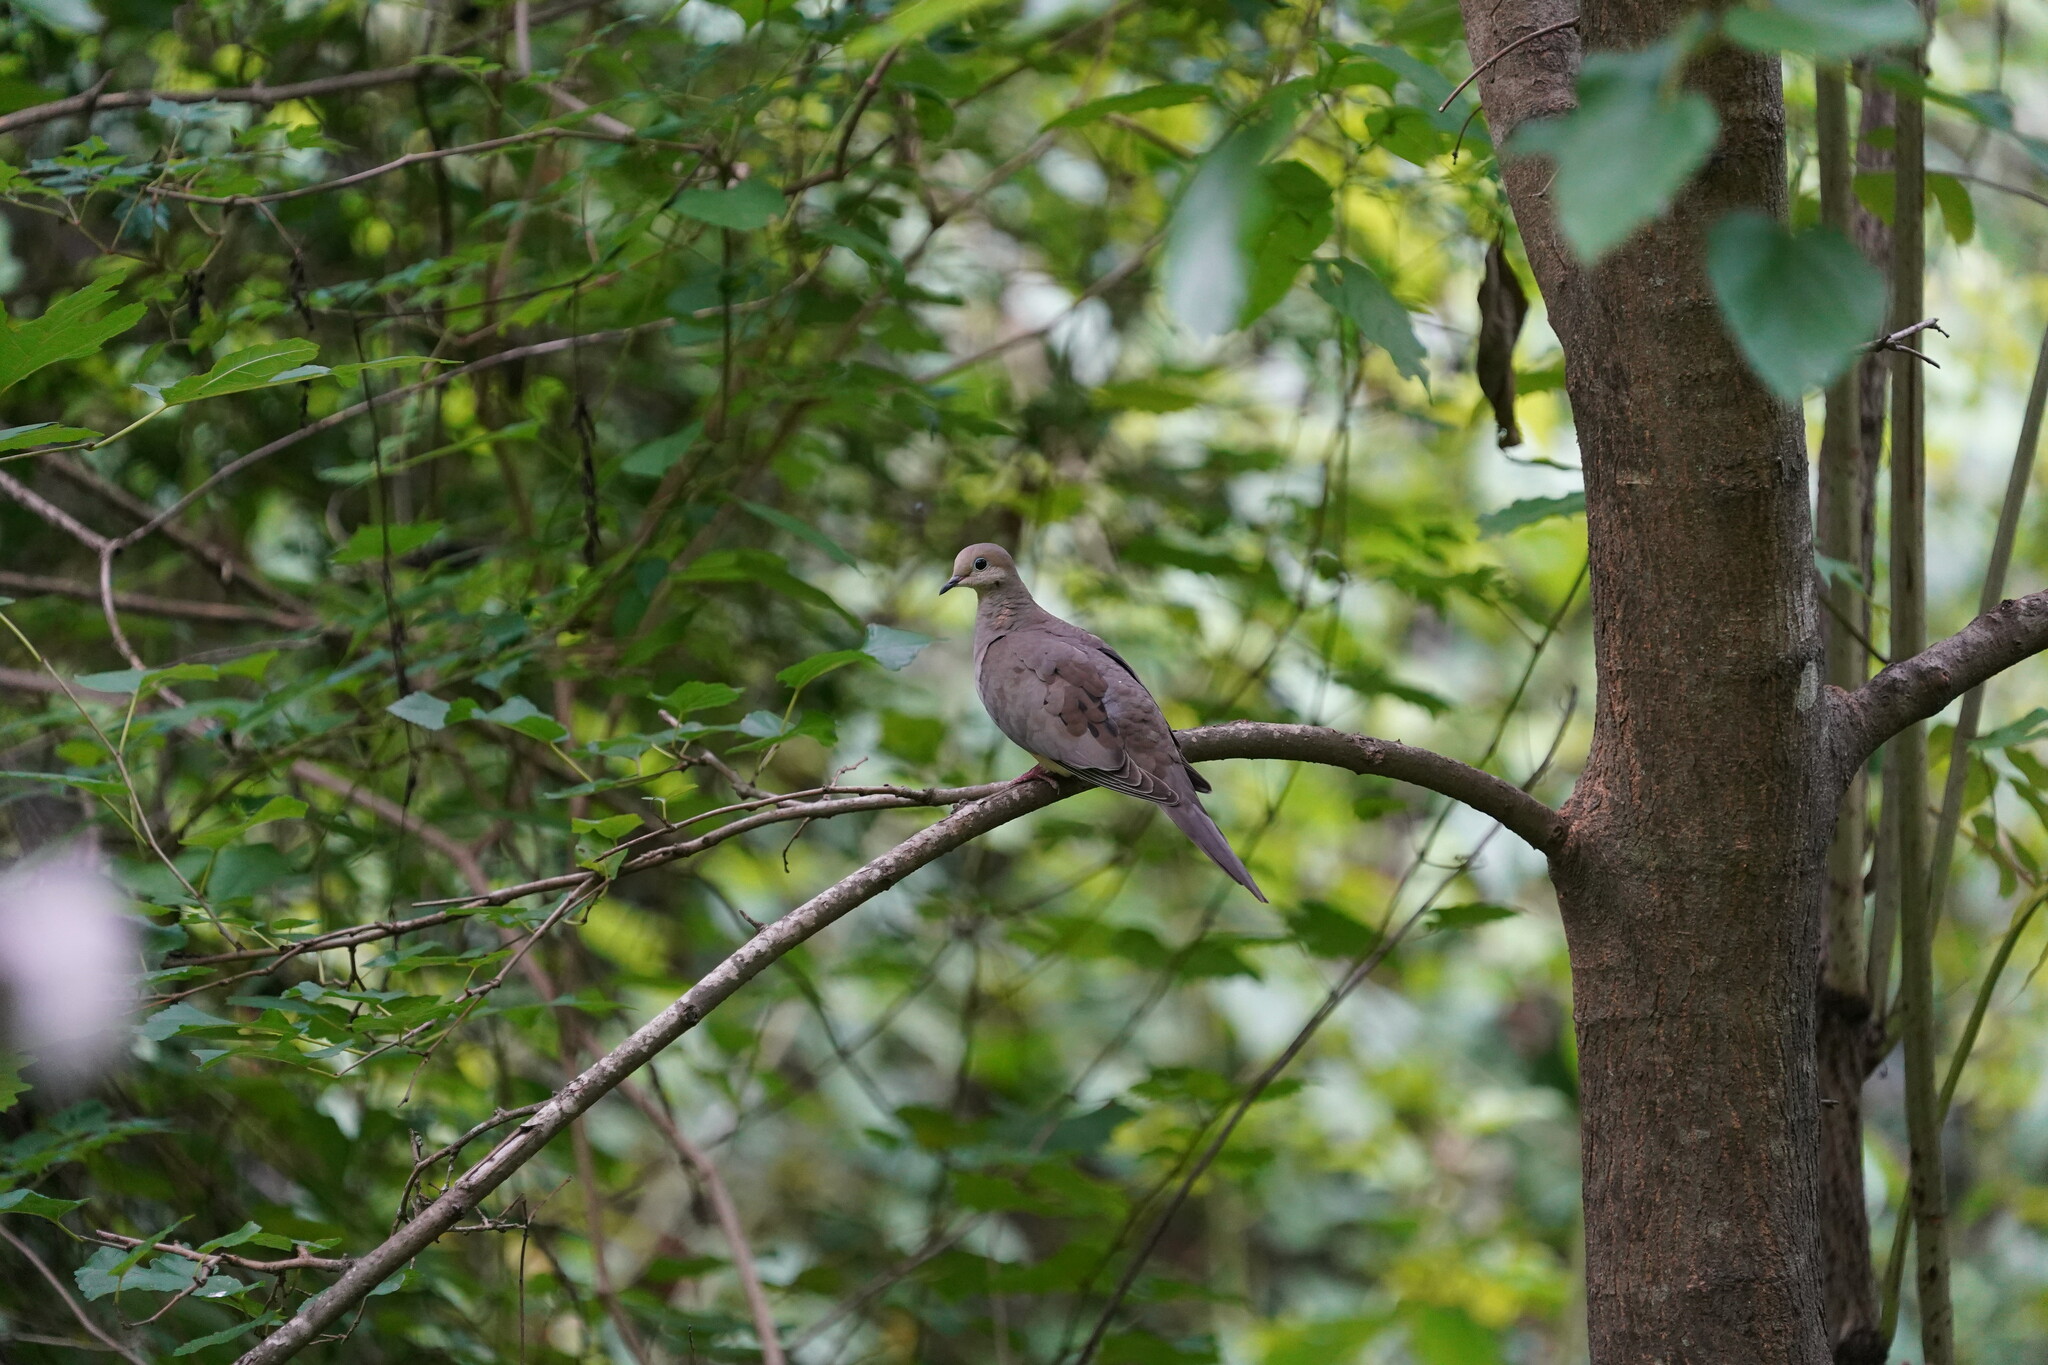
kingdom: Animalia
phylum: Chordata
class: Aves
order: Columbiformes
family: Columbidae
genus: Zenaida
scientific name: Zenaida macroura
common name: Mourning dove
